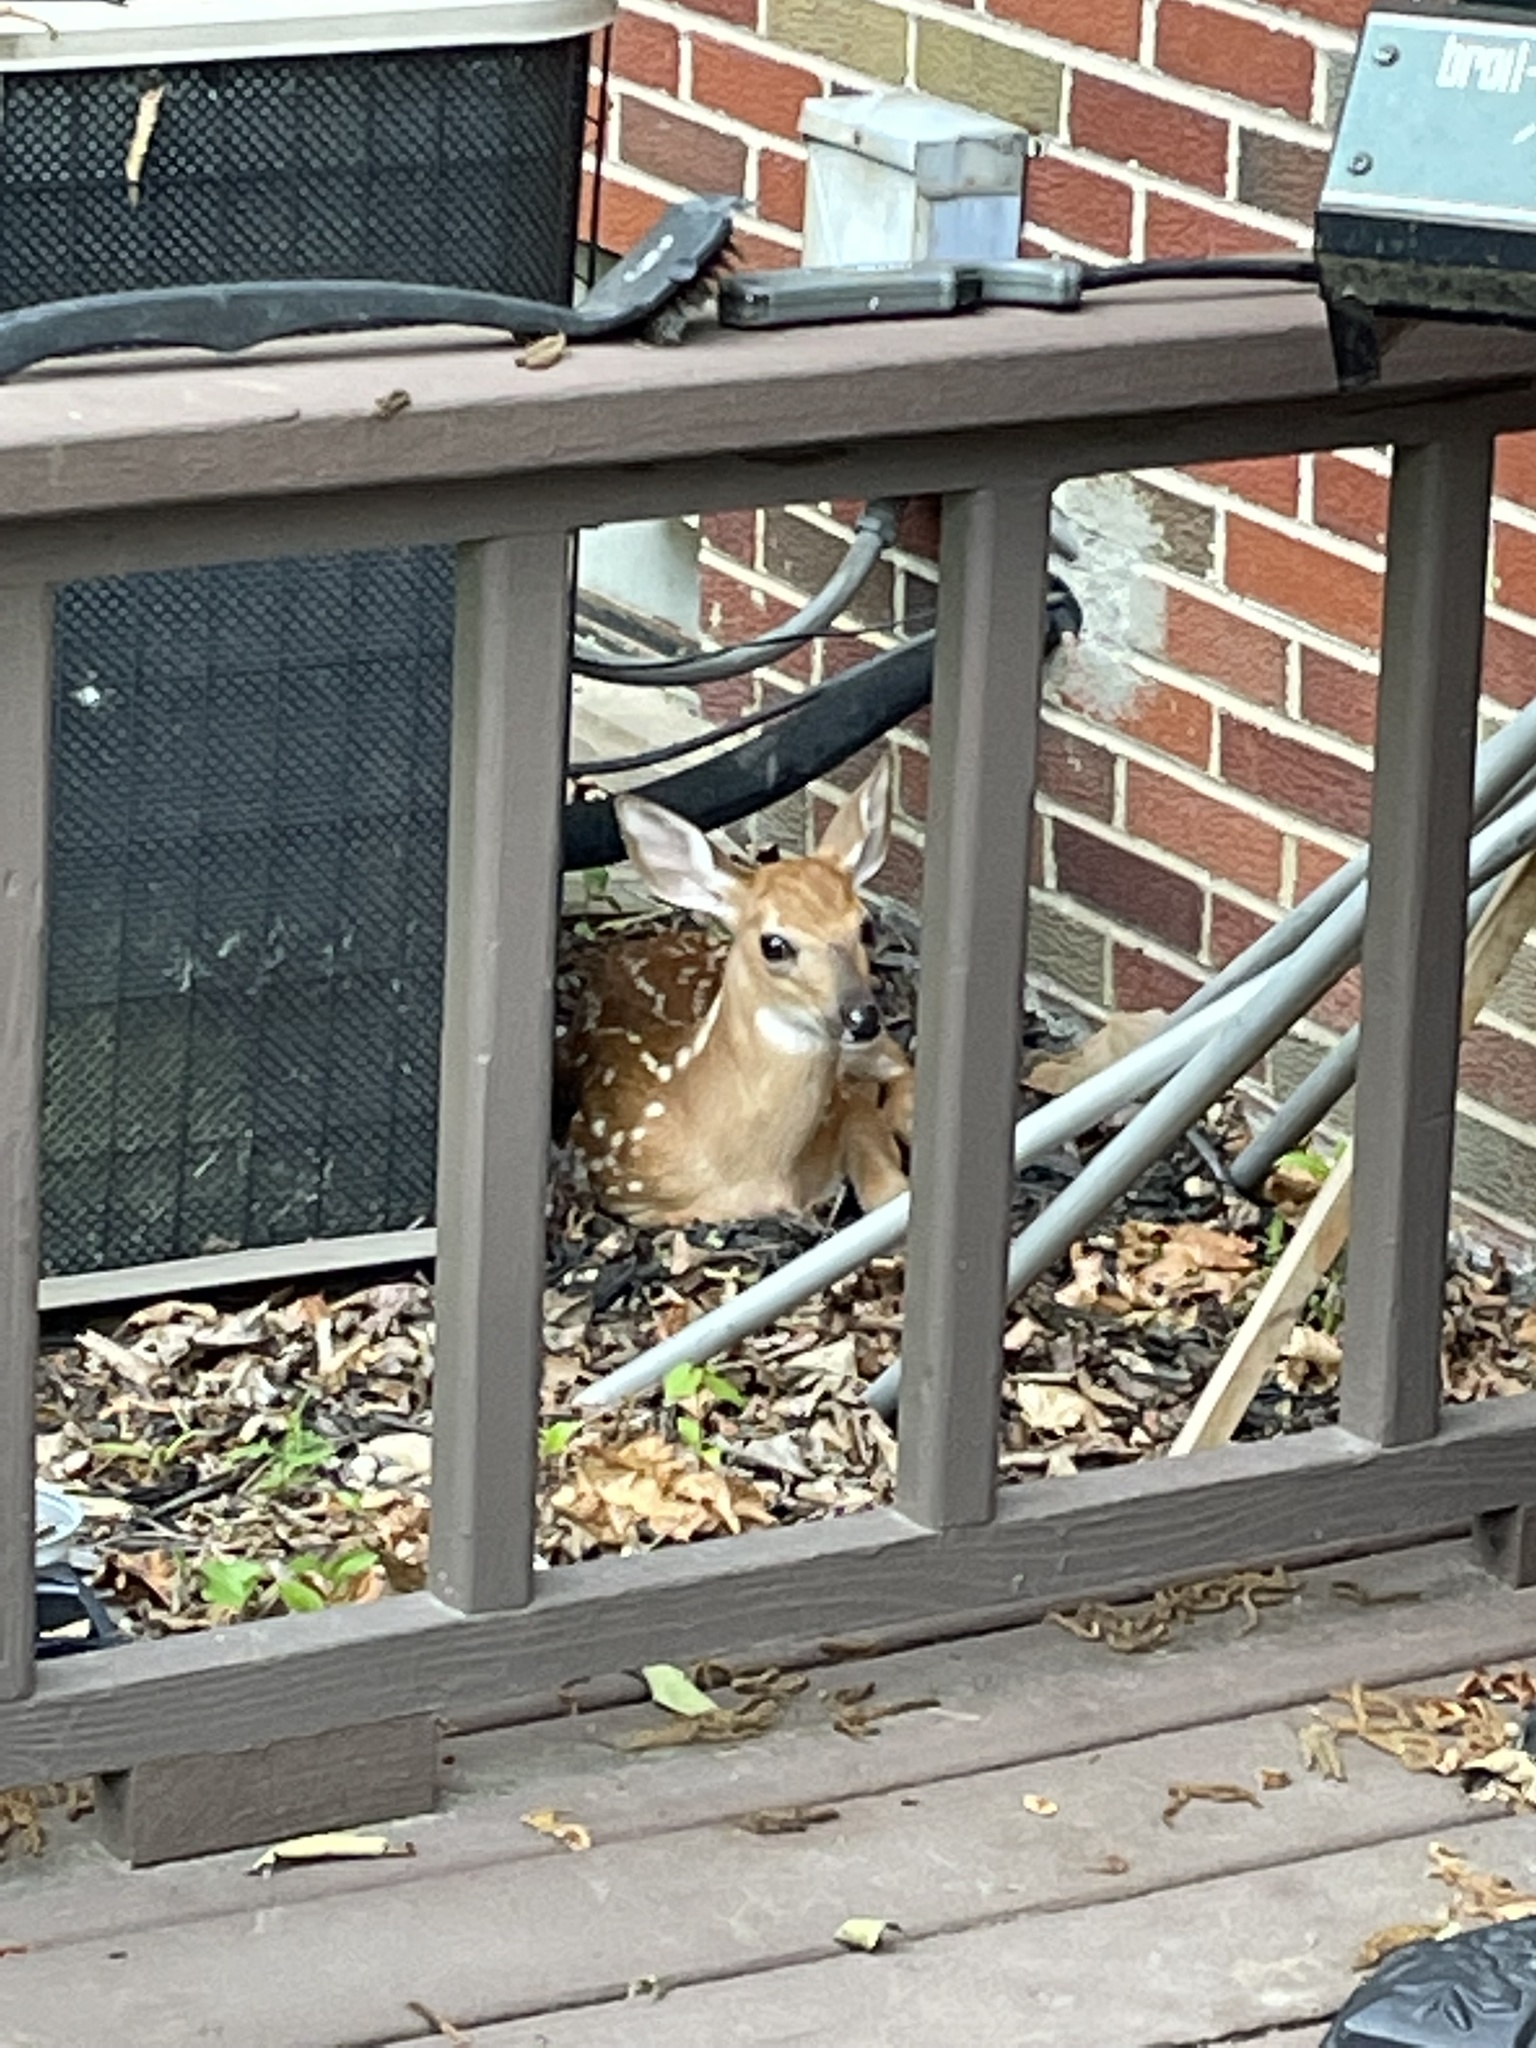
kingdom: Animalia
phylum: Chordata
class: Mammalia
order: Artiodactyla
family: Cervidae
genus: Odocoileus
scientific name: Odocoileus virginianus
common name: White-tailed deer
